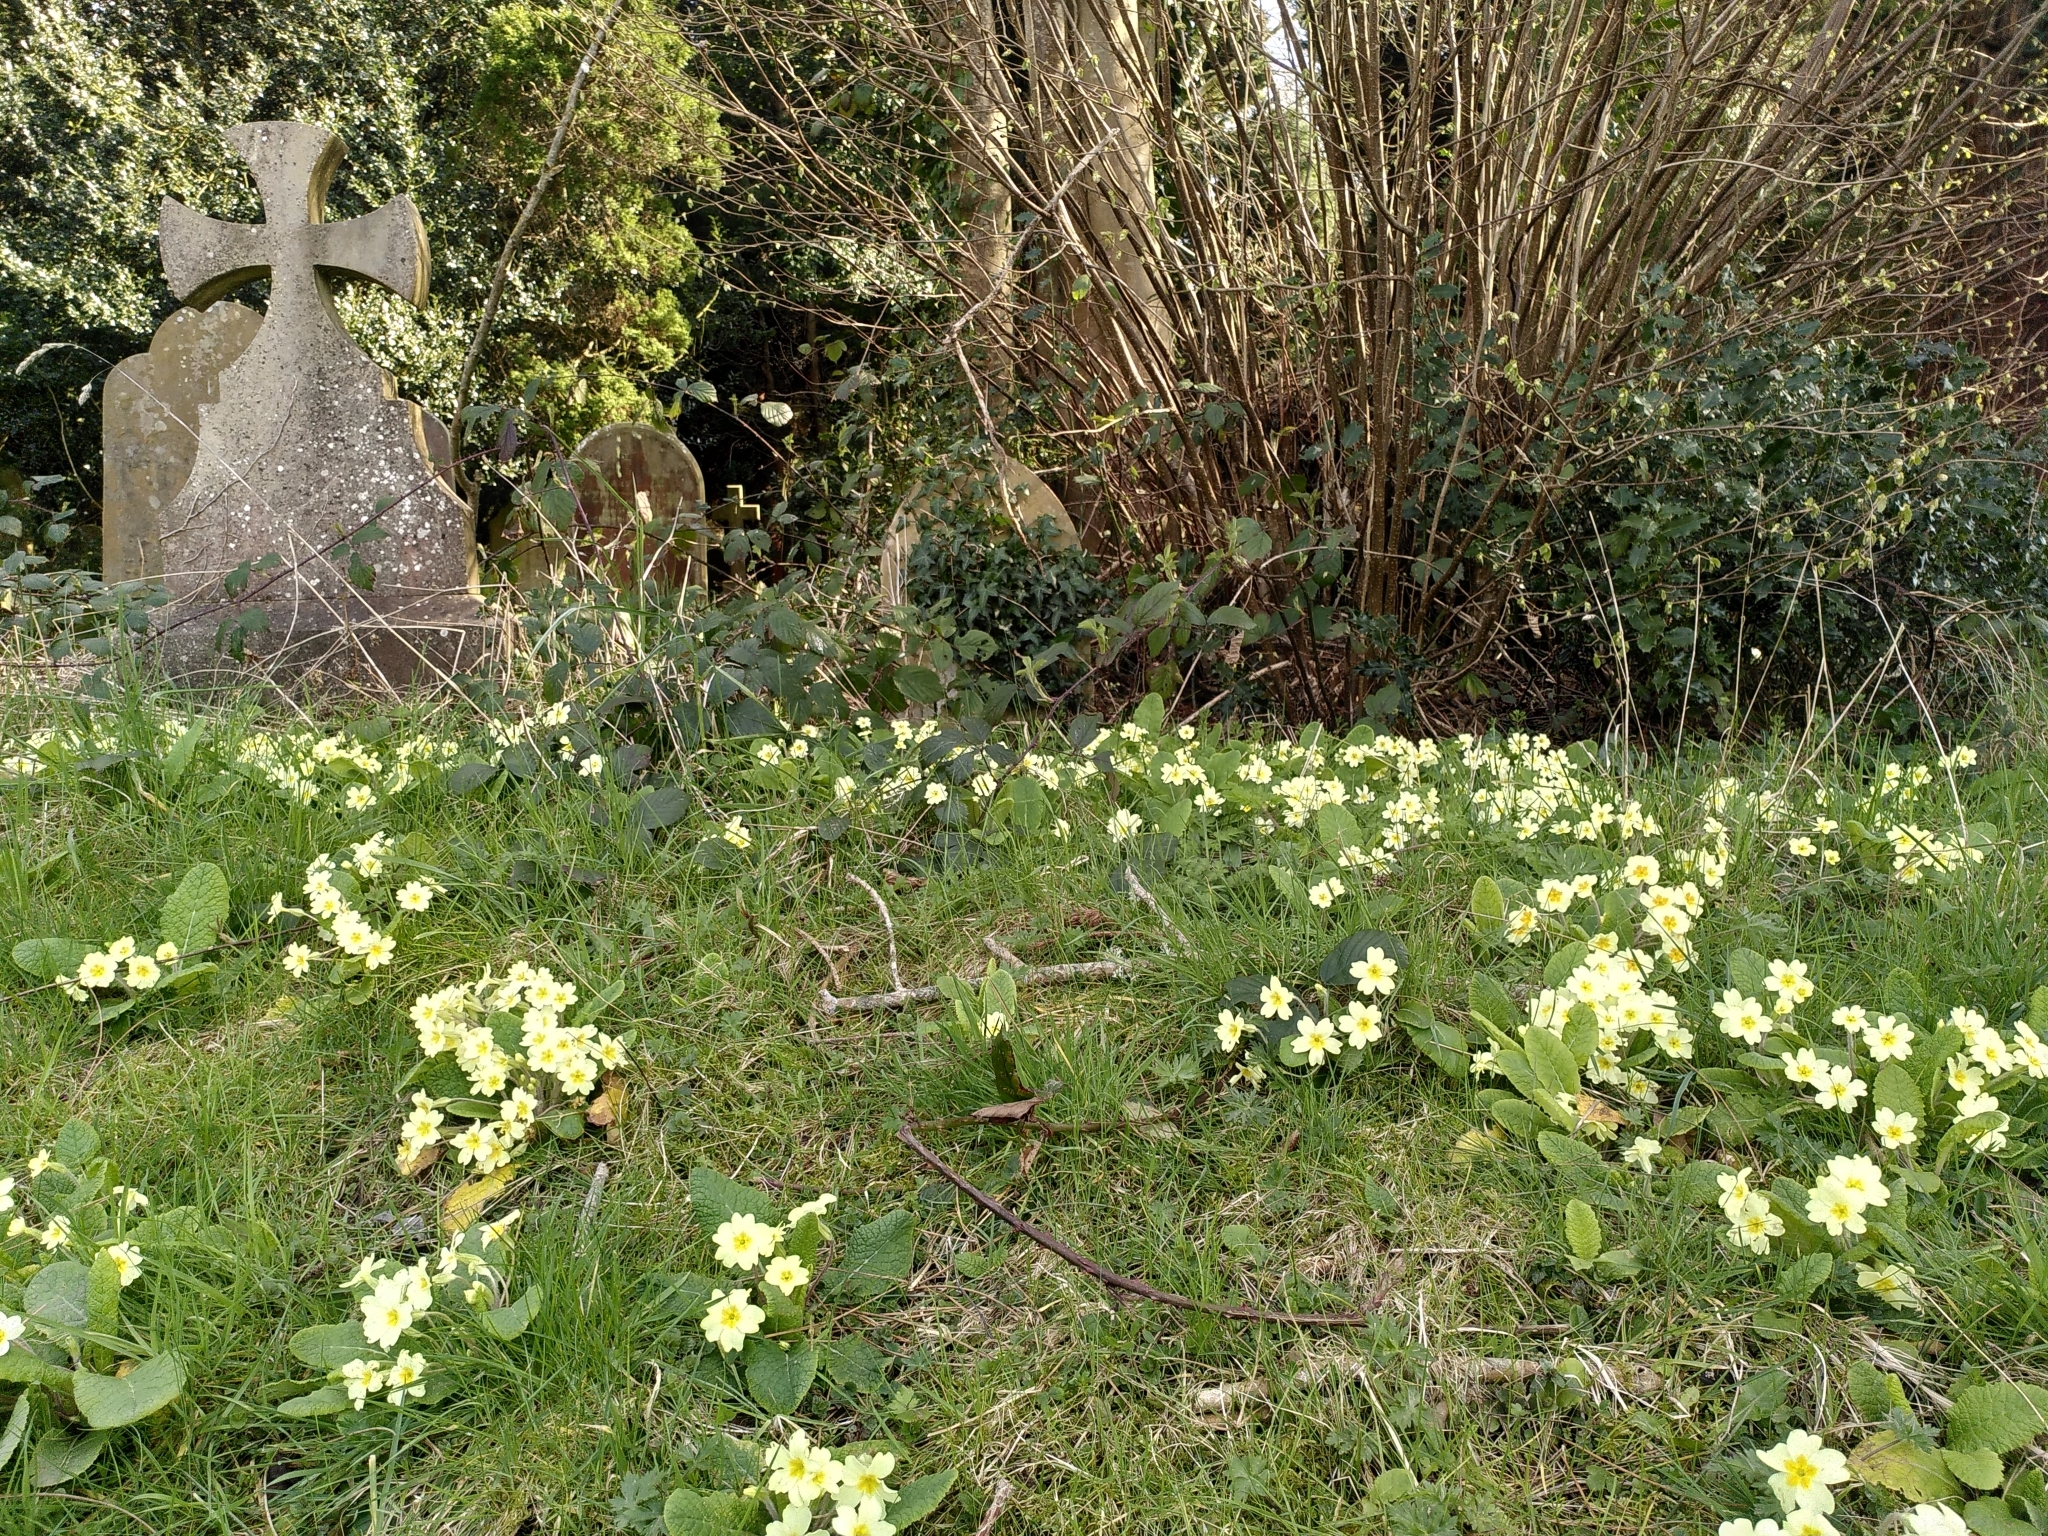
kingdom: Plantae
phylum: Tracheophyta
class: Magnoliopsida
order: Ericales
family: Primulaceae
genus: Primula
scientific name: Primula vulgaris
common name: Primrose
